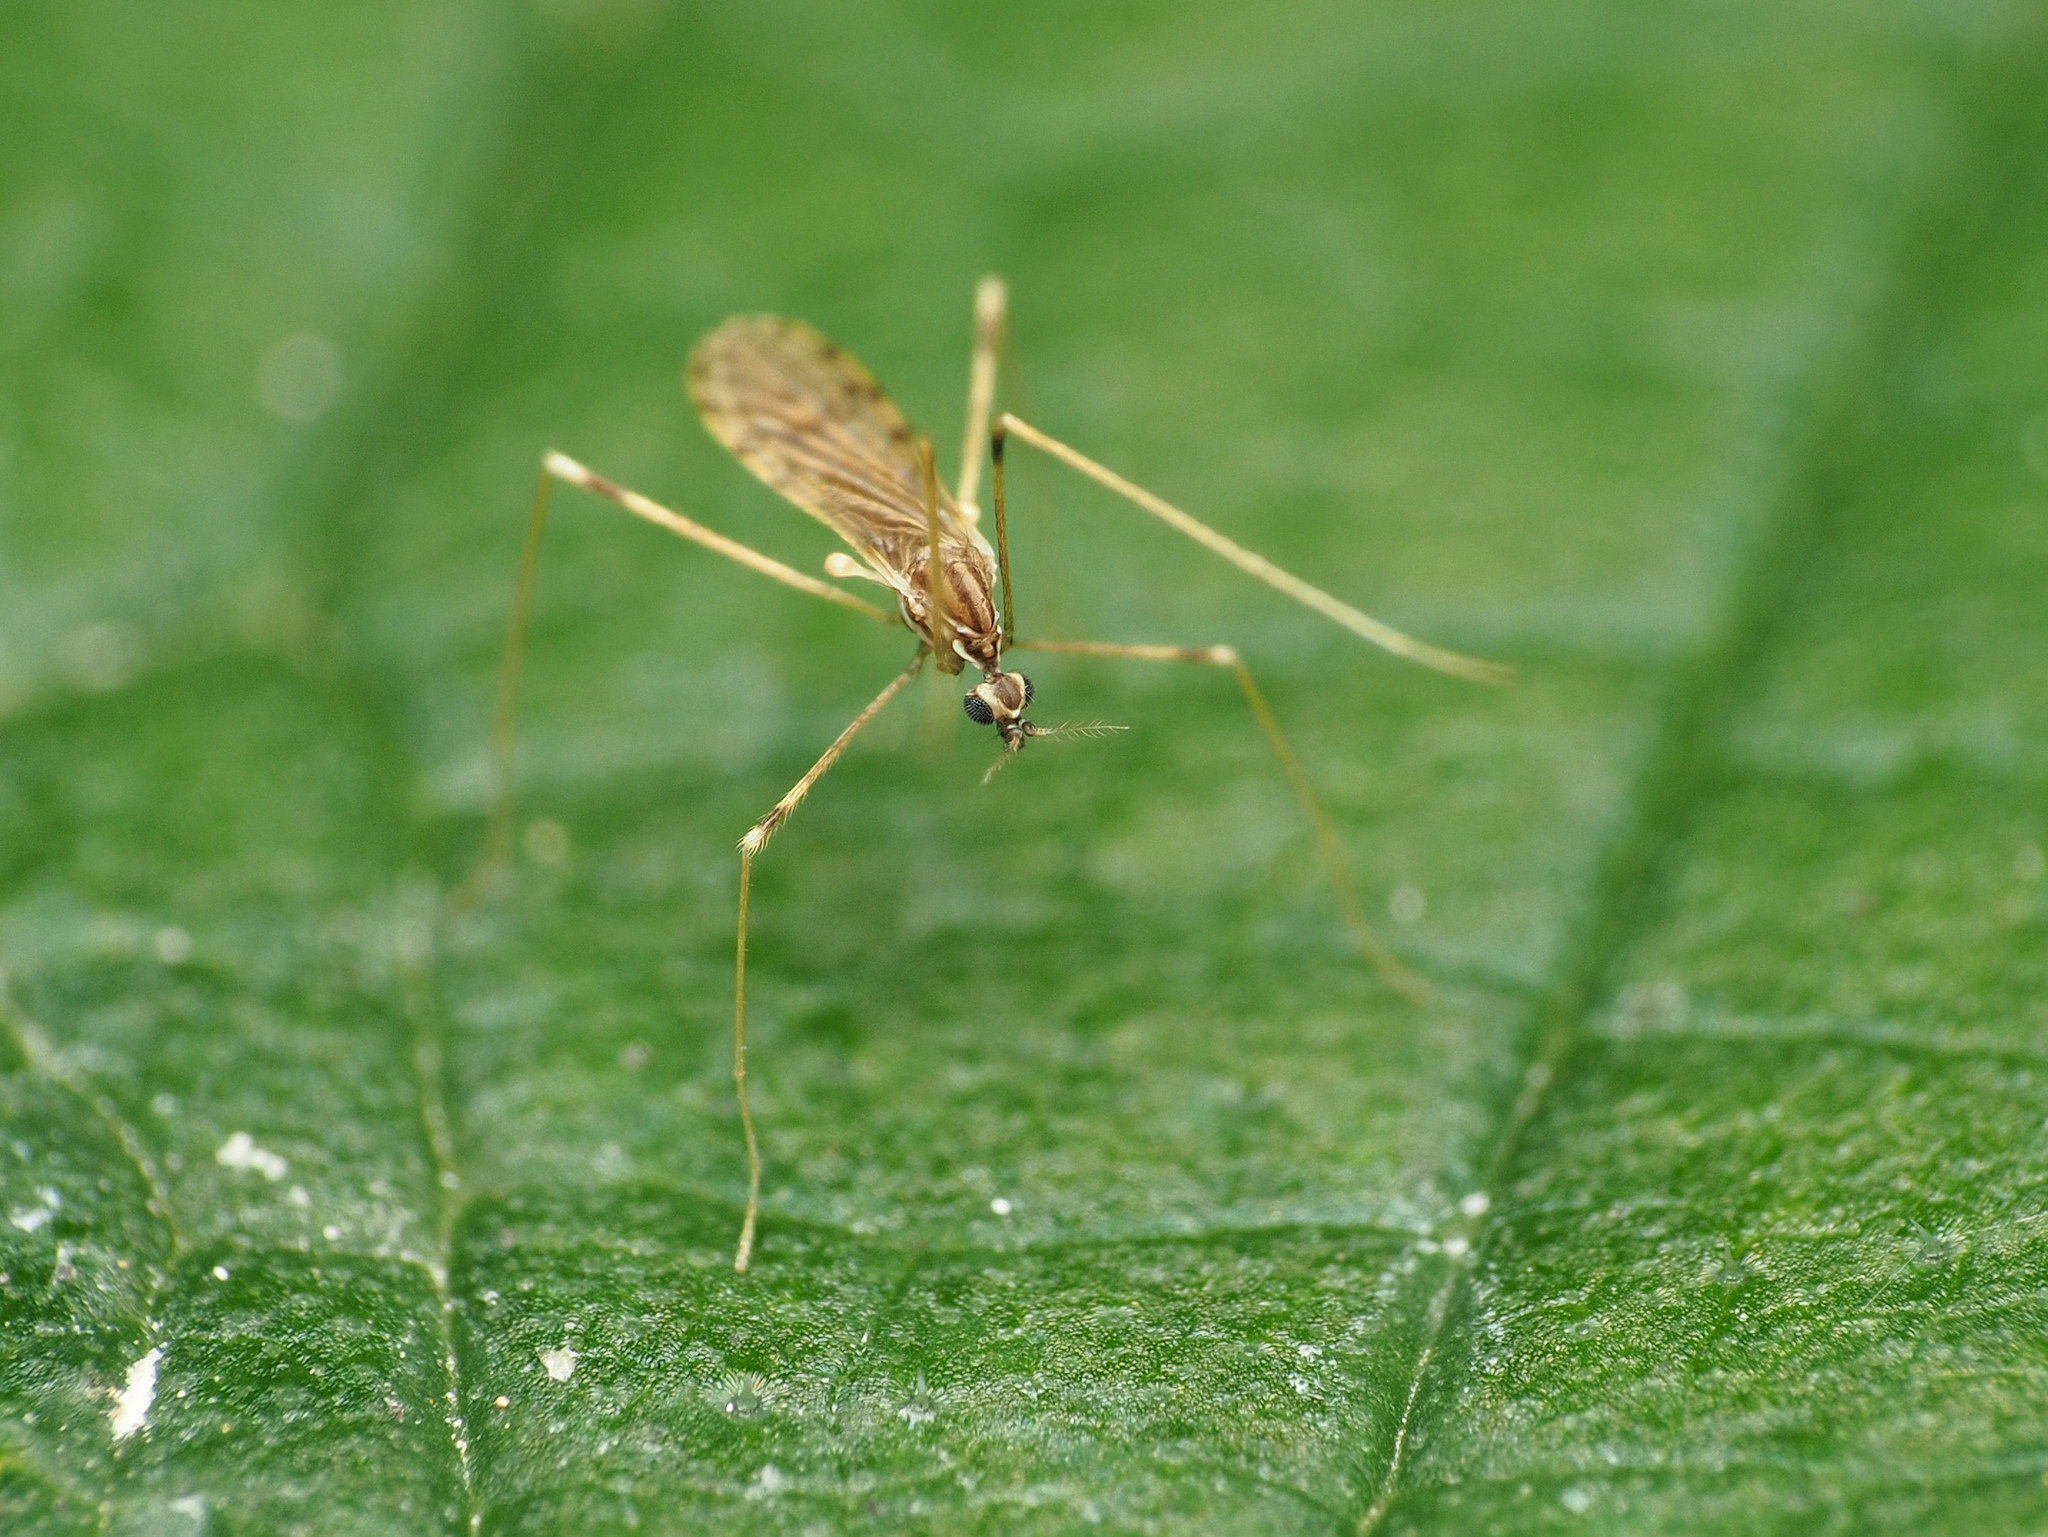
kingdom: Animalia
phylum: Arthropoda
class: Insecta
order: Diptera
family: Limoniidae
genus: Erioptera
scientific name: Erioptera parva
